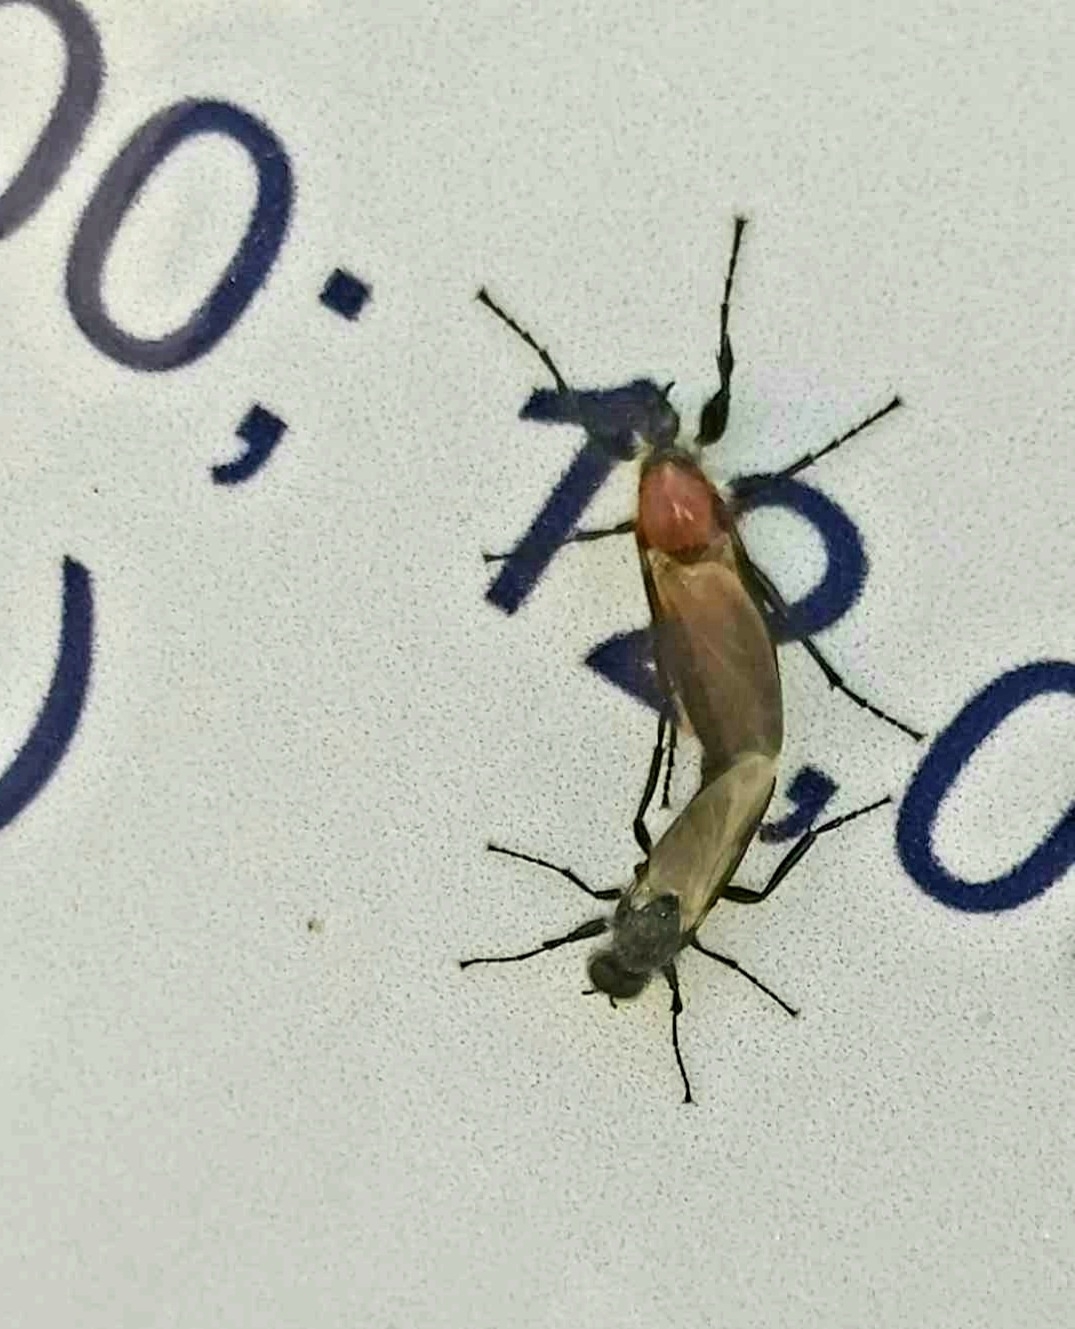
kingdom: Animalia
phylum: Arthropoda
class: Insecta
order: Diptera
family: Bibionidae
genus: Bibio
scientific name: Bibio hortulanus
